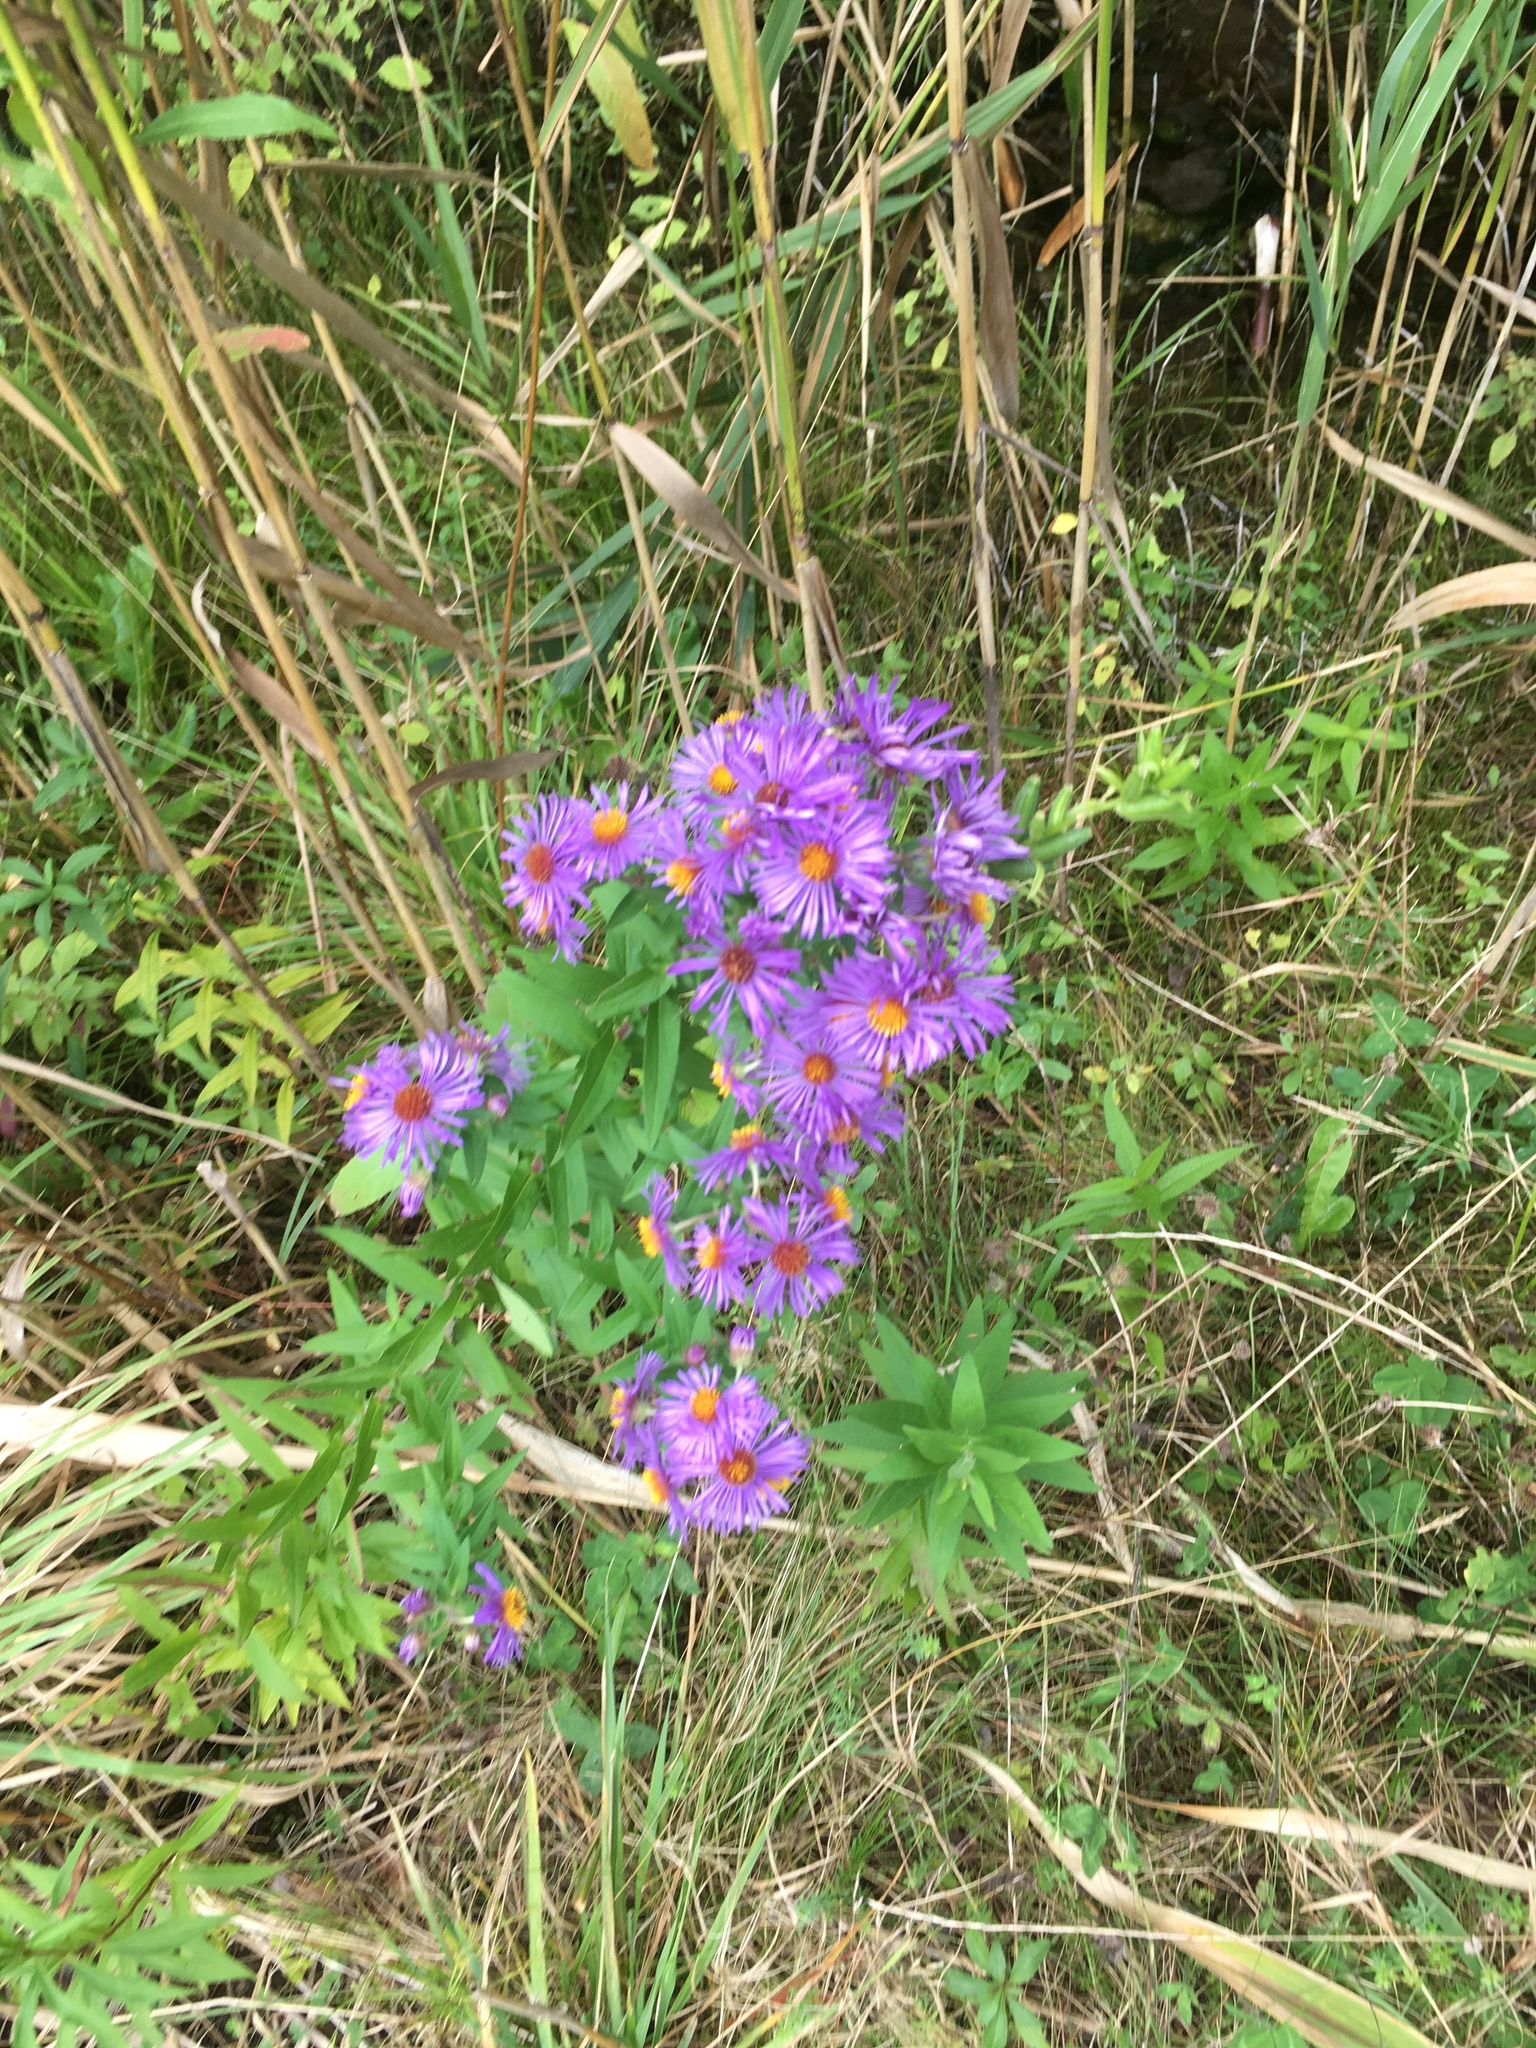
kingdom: Plantae
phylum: Tracheophyta
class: Magnoliopsida
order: Asterales
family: Asteraceae
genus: Symphyotrichum
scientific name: Symphyotrichum novae-angliae
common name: Michaelmas daisy
